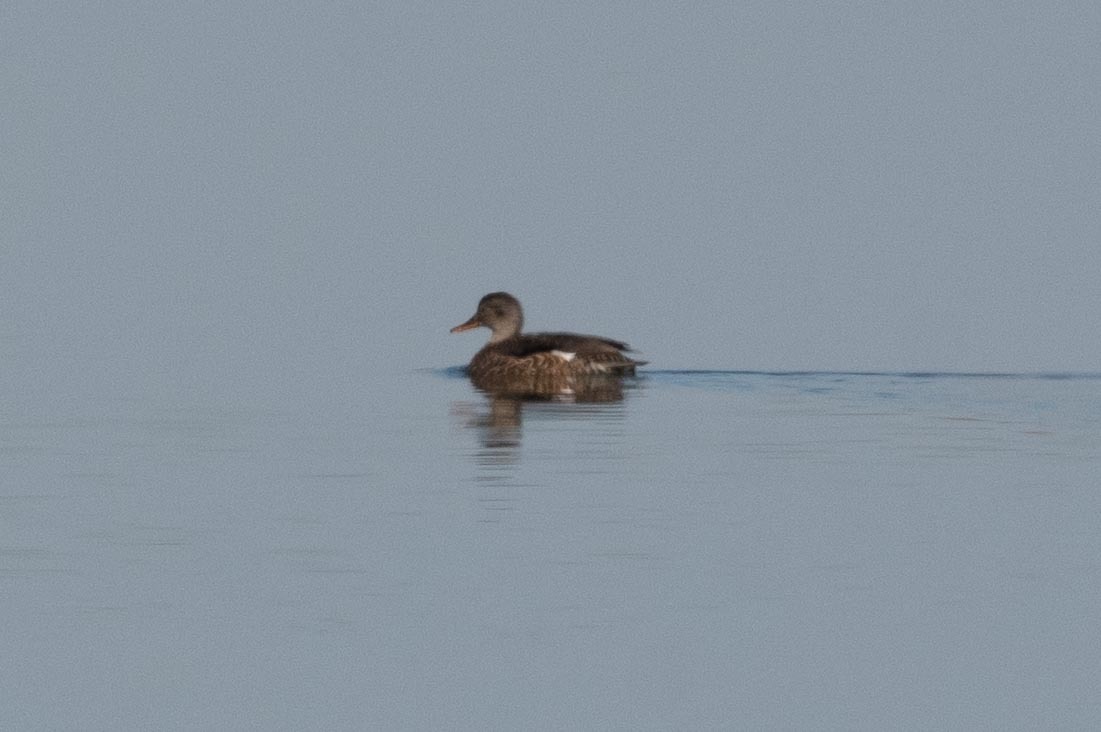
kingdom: Animalia
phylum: Chordata
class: Aves
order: Anseriformes
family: Anatidae
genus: Mareca
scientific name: Mareca strepera
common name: Gadwall
